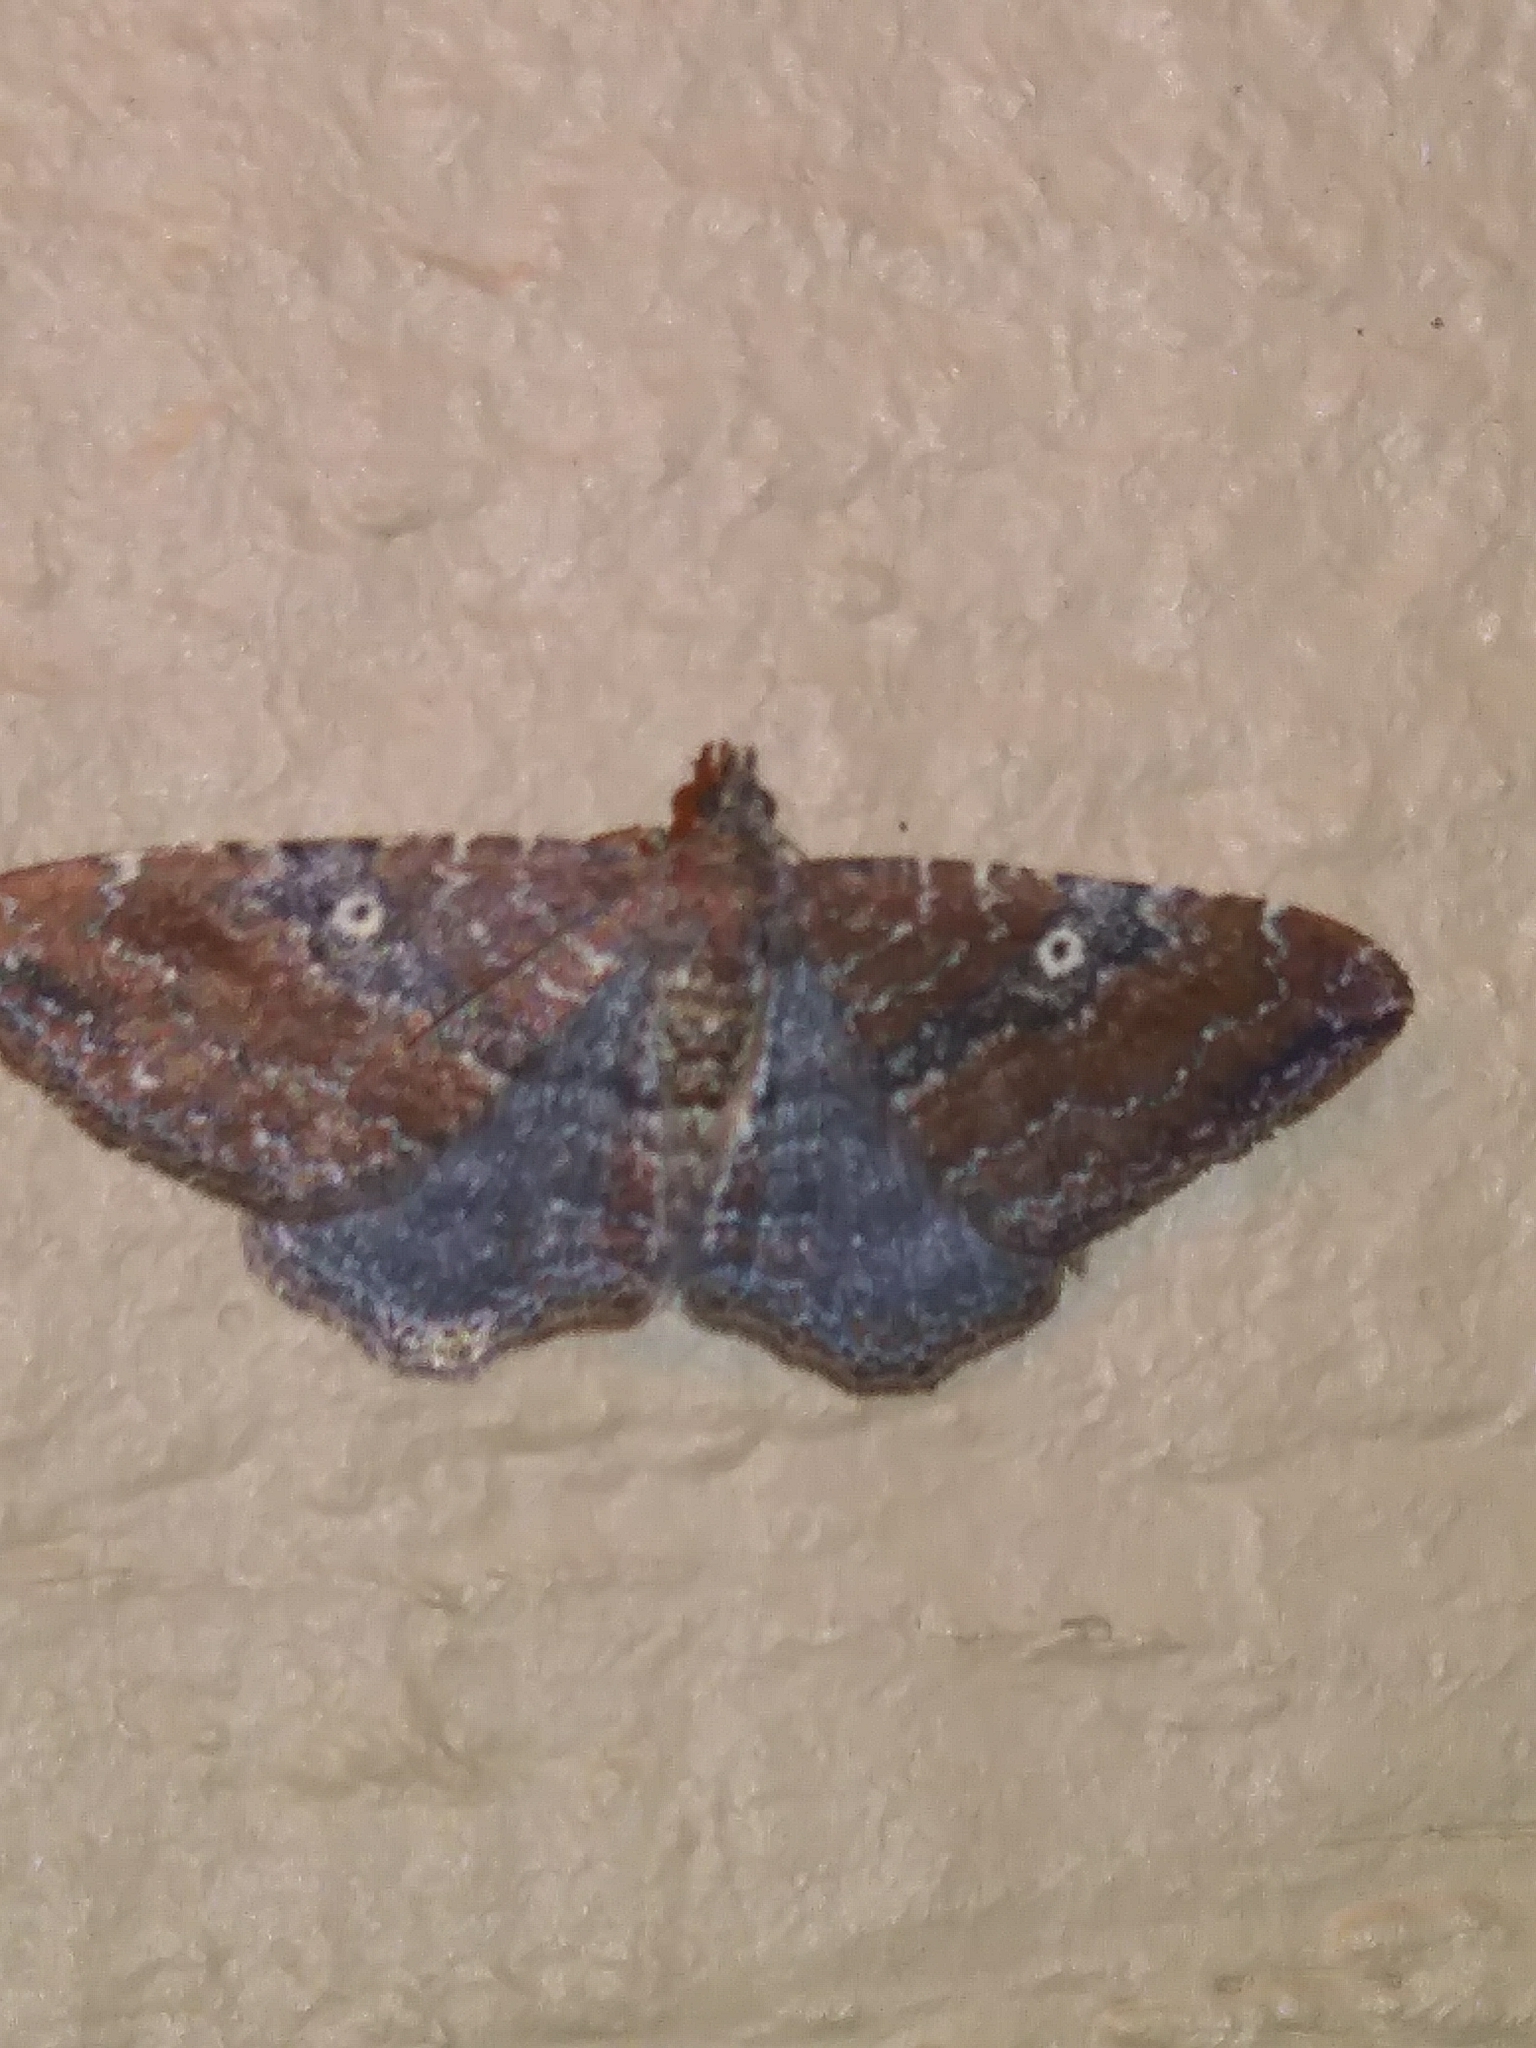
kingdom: Animalia
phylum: Arthropoda
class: Insecta
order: Lepidoptera
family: Geometridae
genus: Orthonama
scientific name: Orthonama obstipata
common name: The gem
